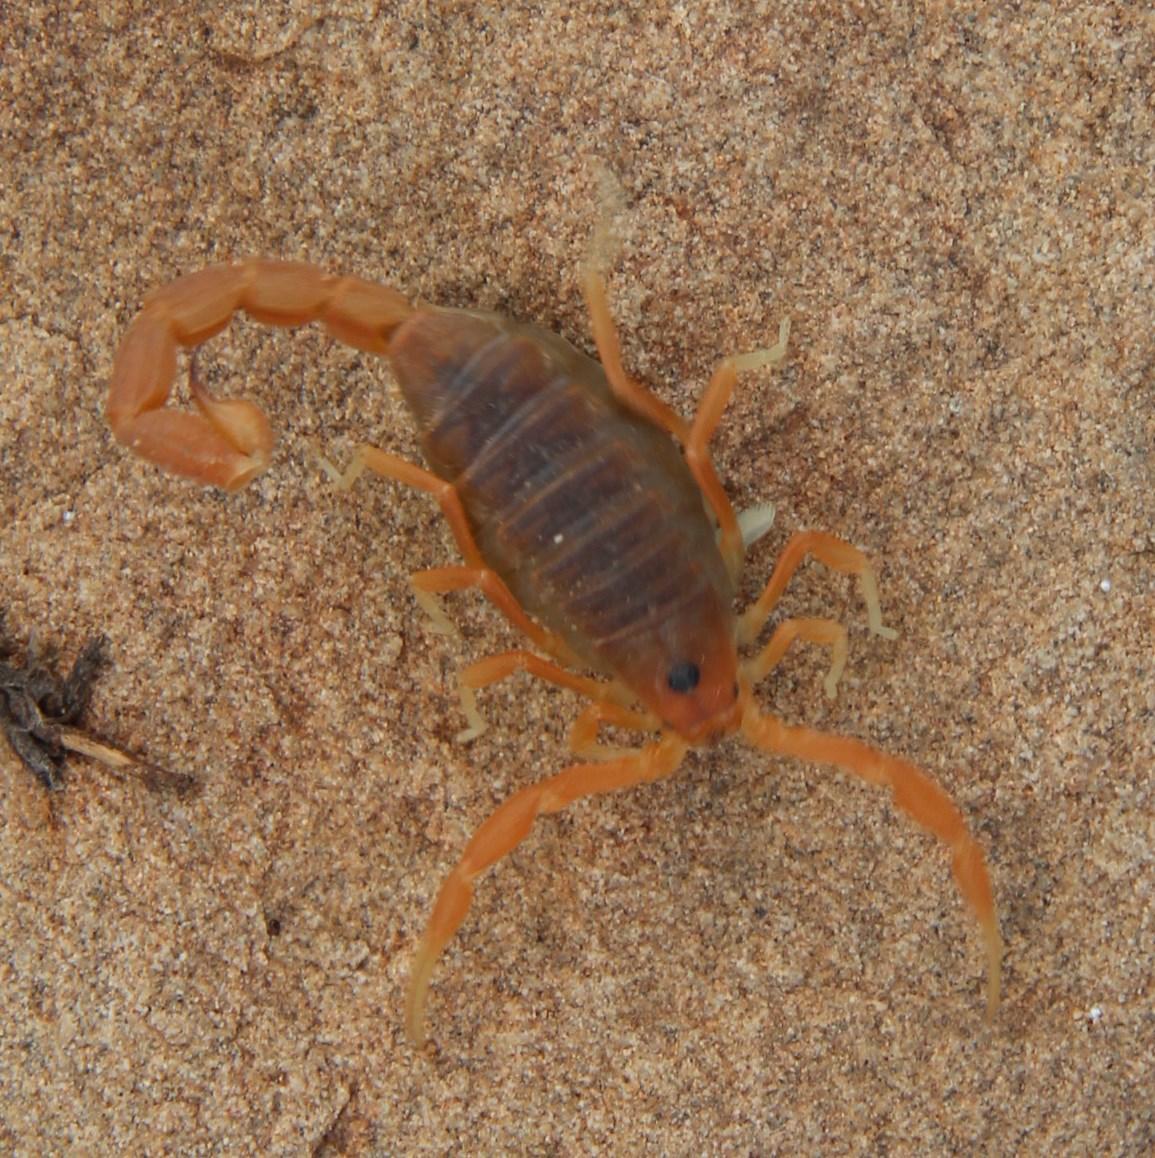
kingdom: Animalia
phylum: Arthropoda
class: Arachnida
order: Scorpiones
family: Buthidae
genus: Parabuthus
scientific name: Parabuthus planicauda
